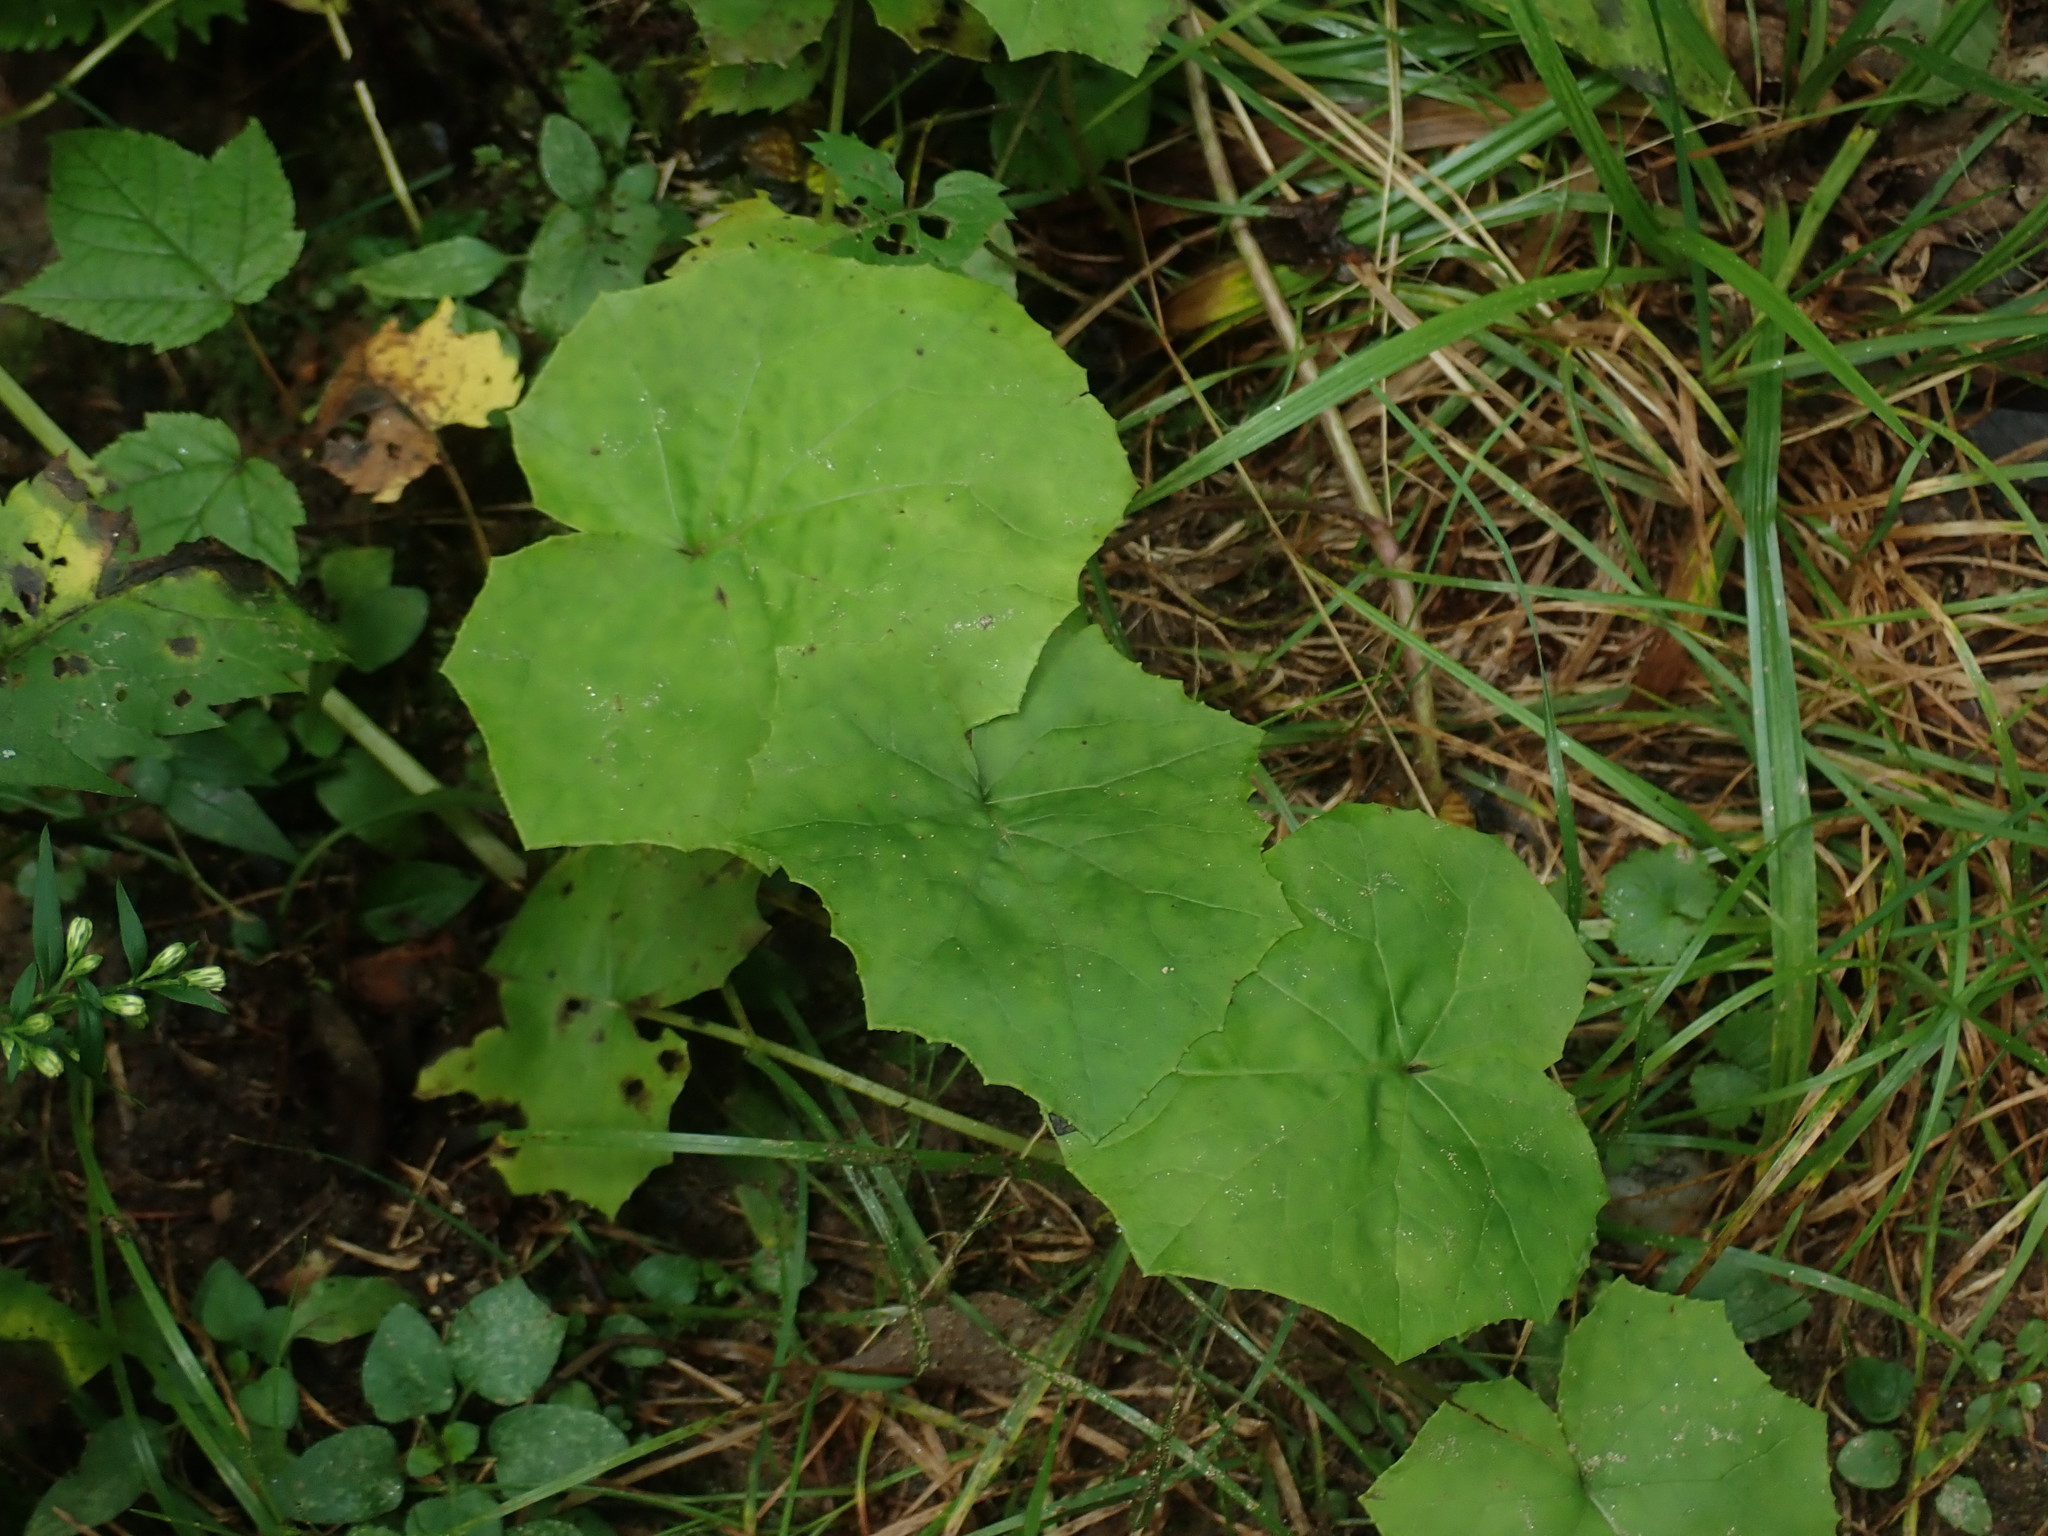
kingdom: Plantae
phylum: Tracheophyta
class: Magnoliopsida
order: Asterales
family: Asteraceae
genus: Tussilago
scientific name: Tussilago farfara
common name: Coltsfoot
